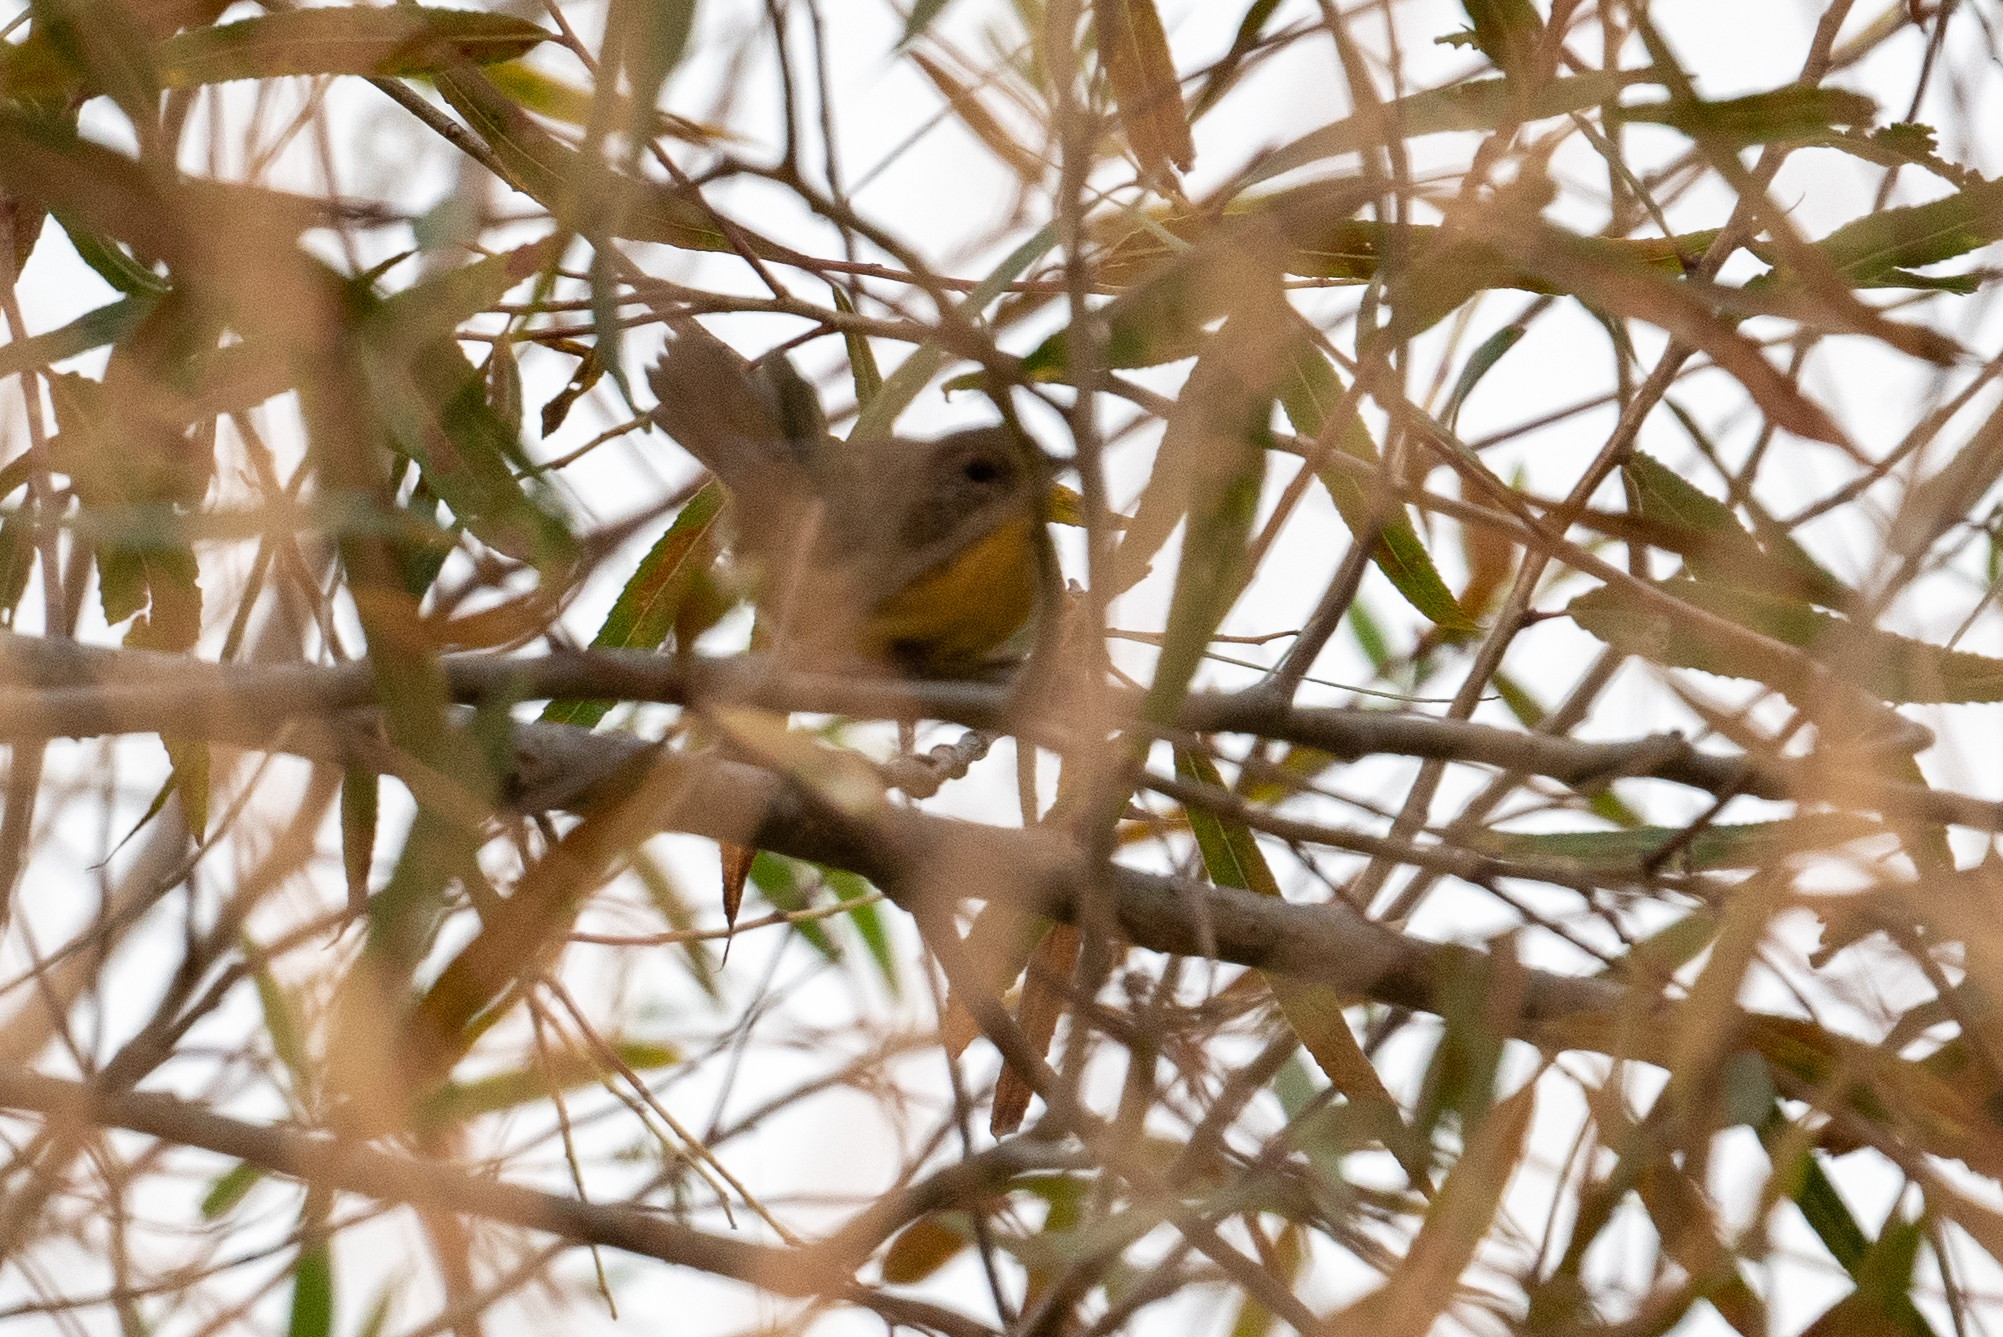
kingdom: Animalia
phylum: Chordata
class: Aves
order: Passeriformes
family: Parulidae
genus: Geothlypis
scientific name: Geothlypis trichas
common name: Common yellowthroat
